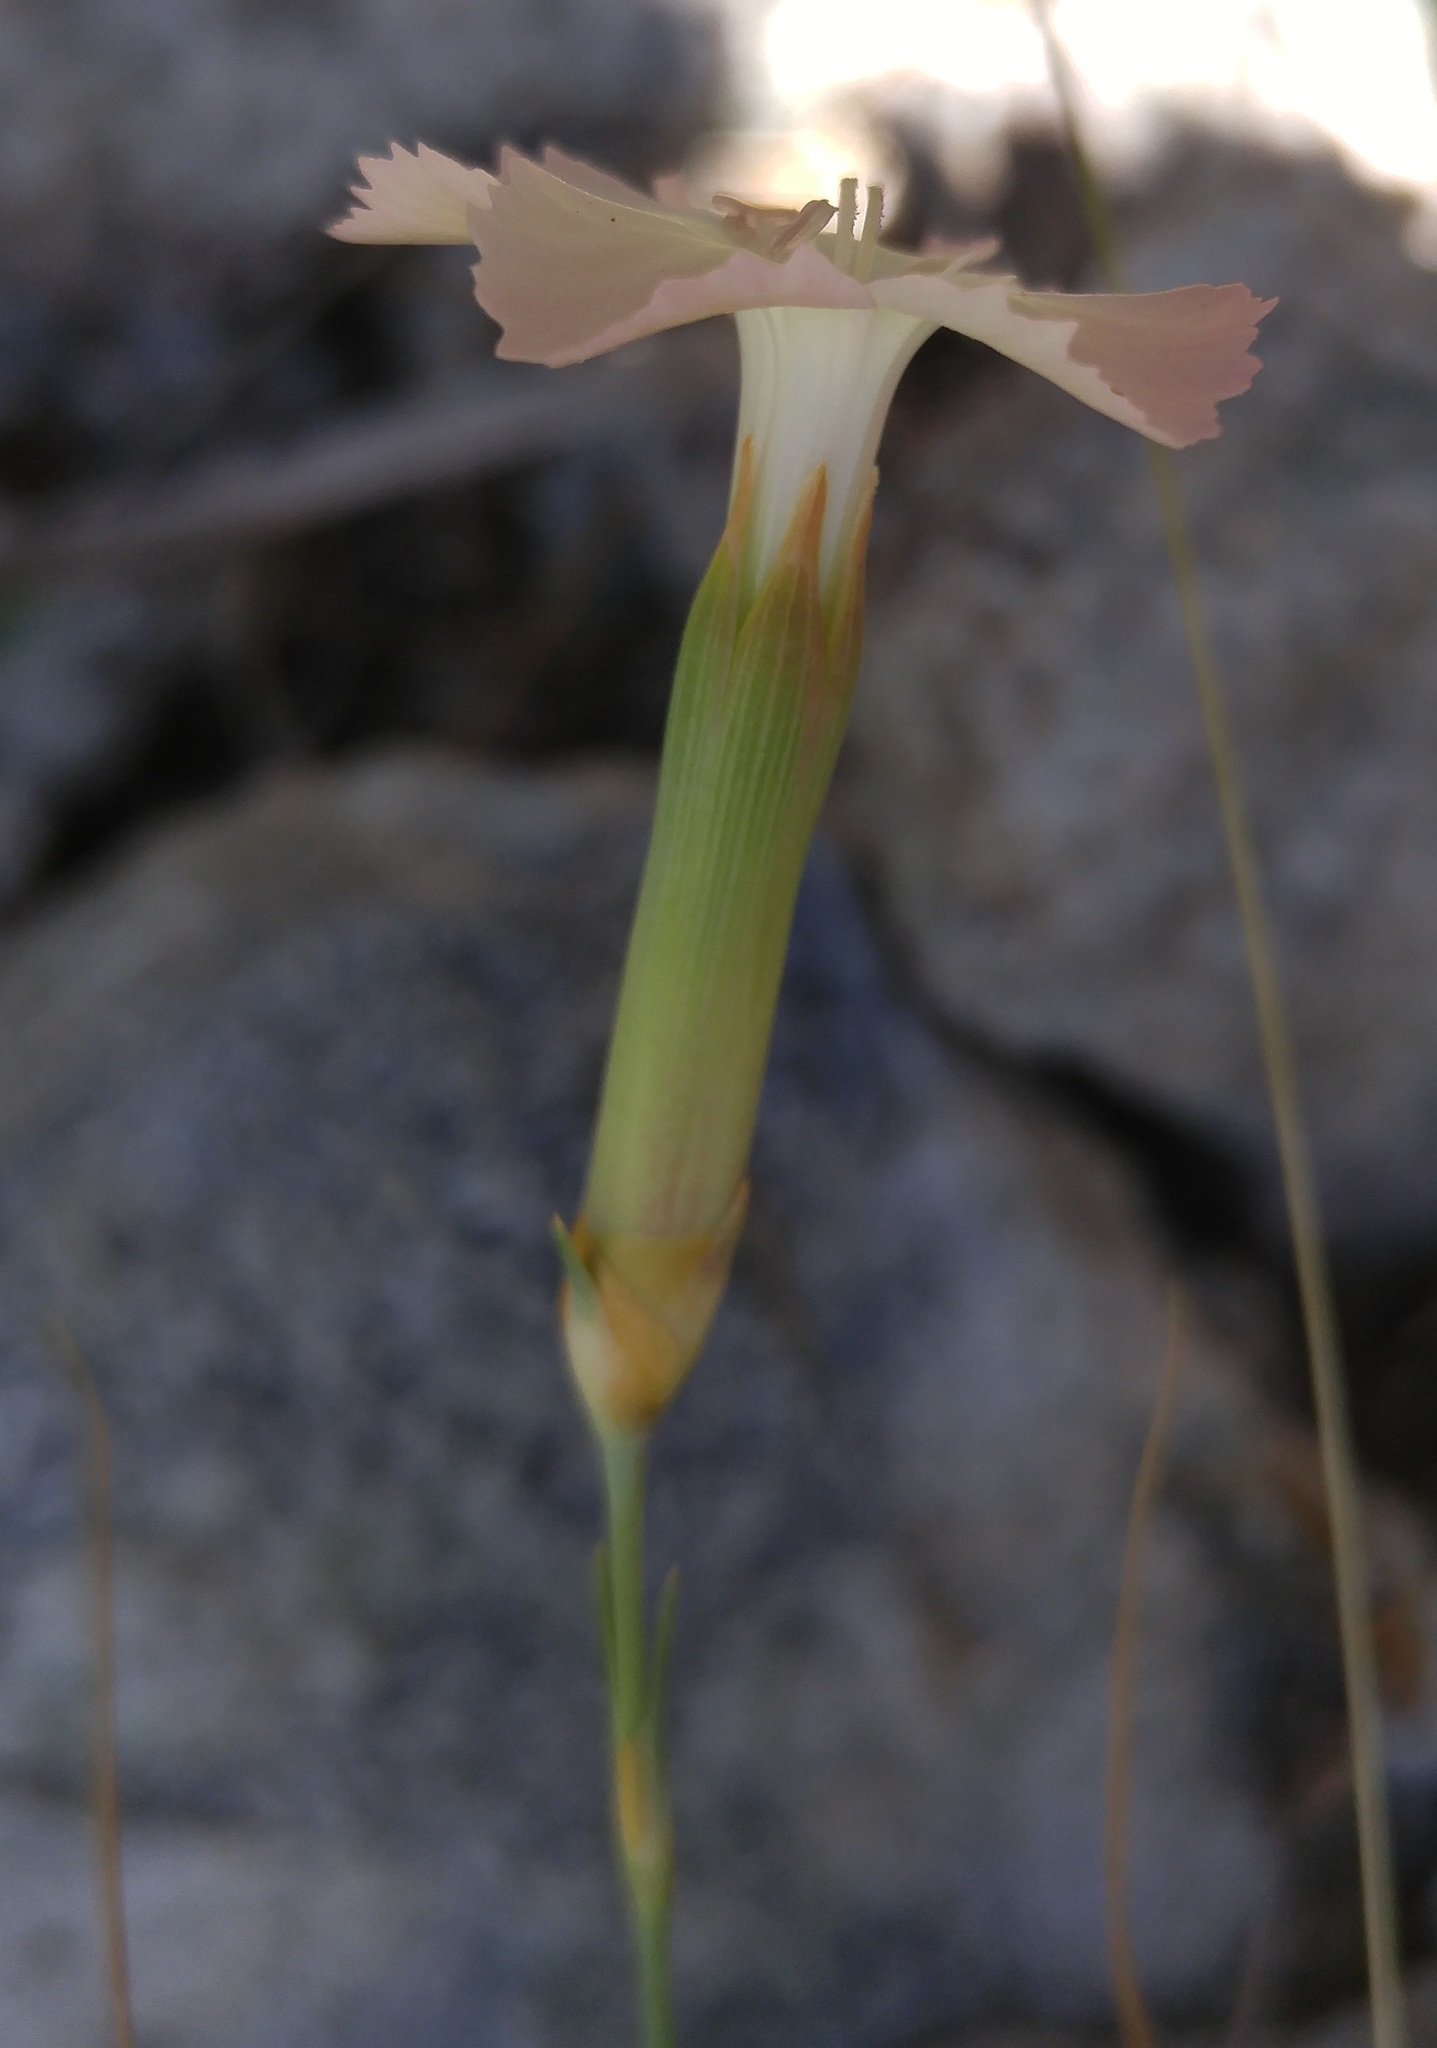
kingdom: Plantae
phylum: Tracheophyta
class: Magnoliopsida
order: Caryophyllales
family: Caryophyllaceae
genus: Dianthus
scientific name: Dianthus arrostoi
